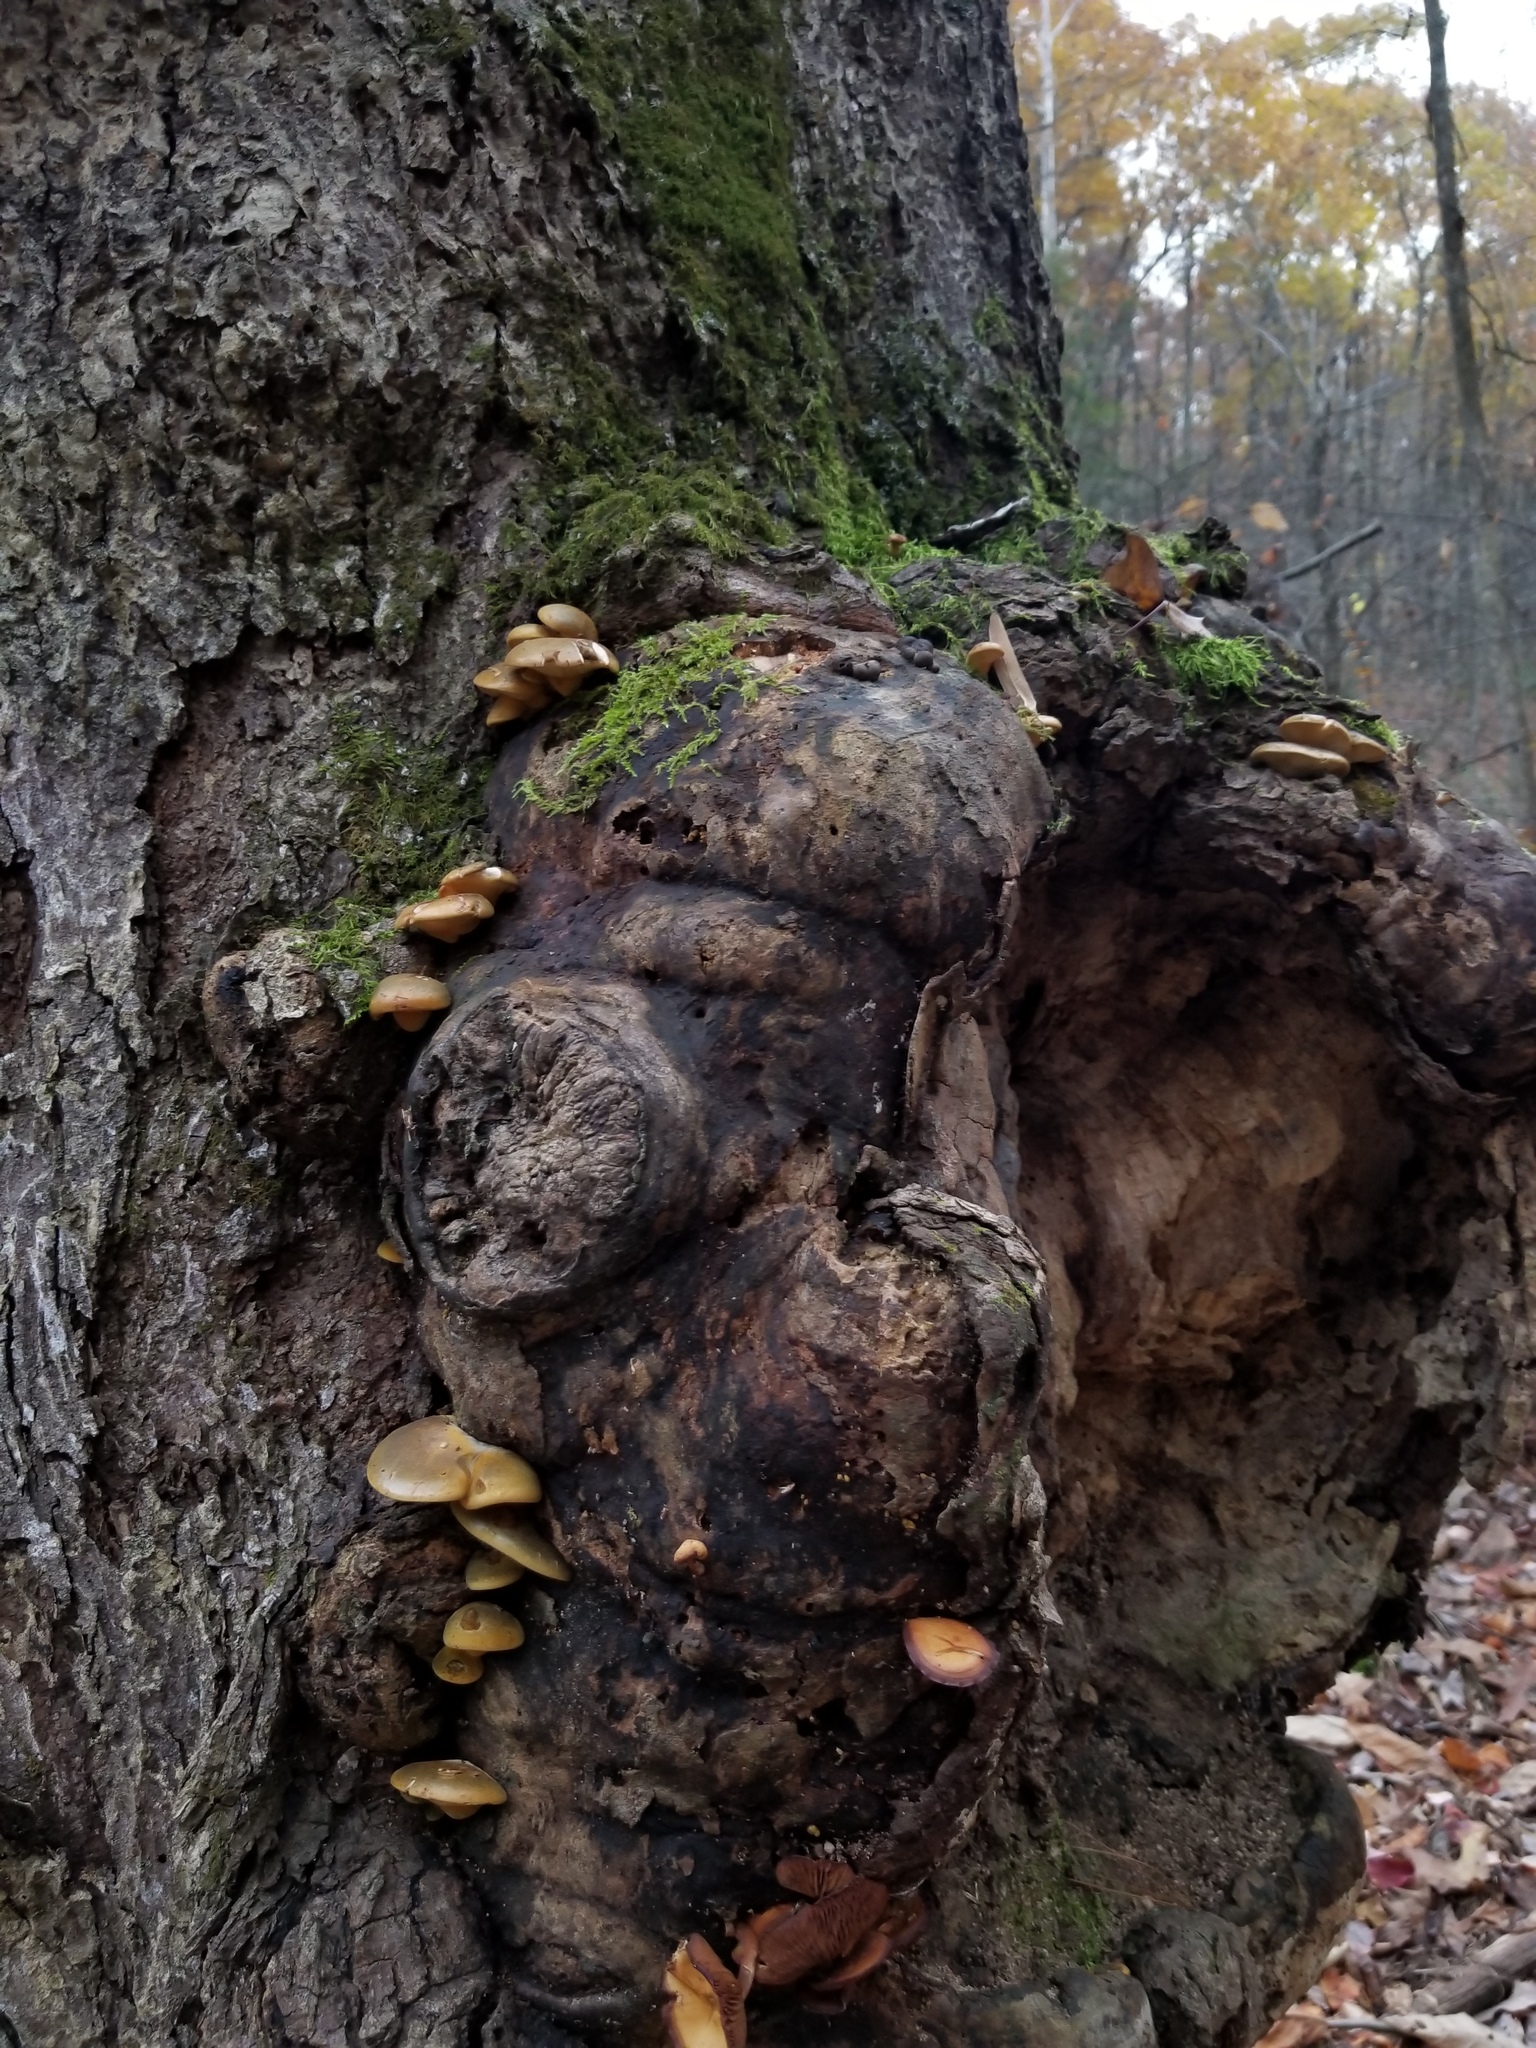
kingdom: Fungi
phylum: Basidiomycota
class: Agaricomycetes
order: Agaricales
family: Sarcomyxaceae
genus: Sarcomyxa
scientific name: Sarcomyxa serotina
